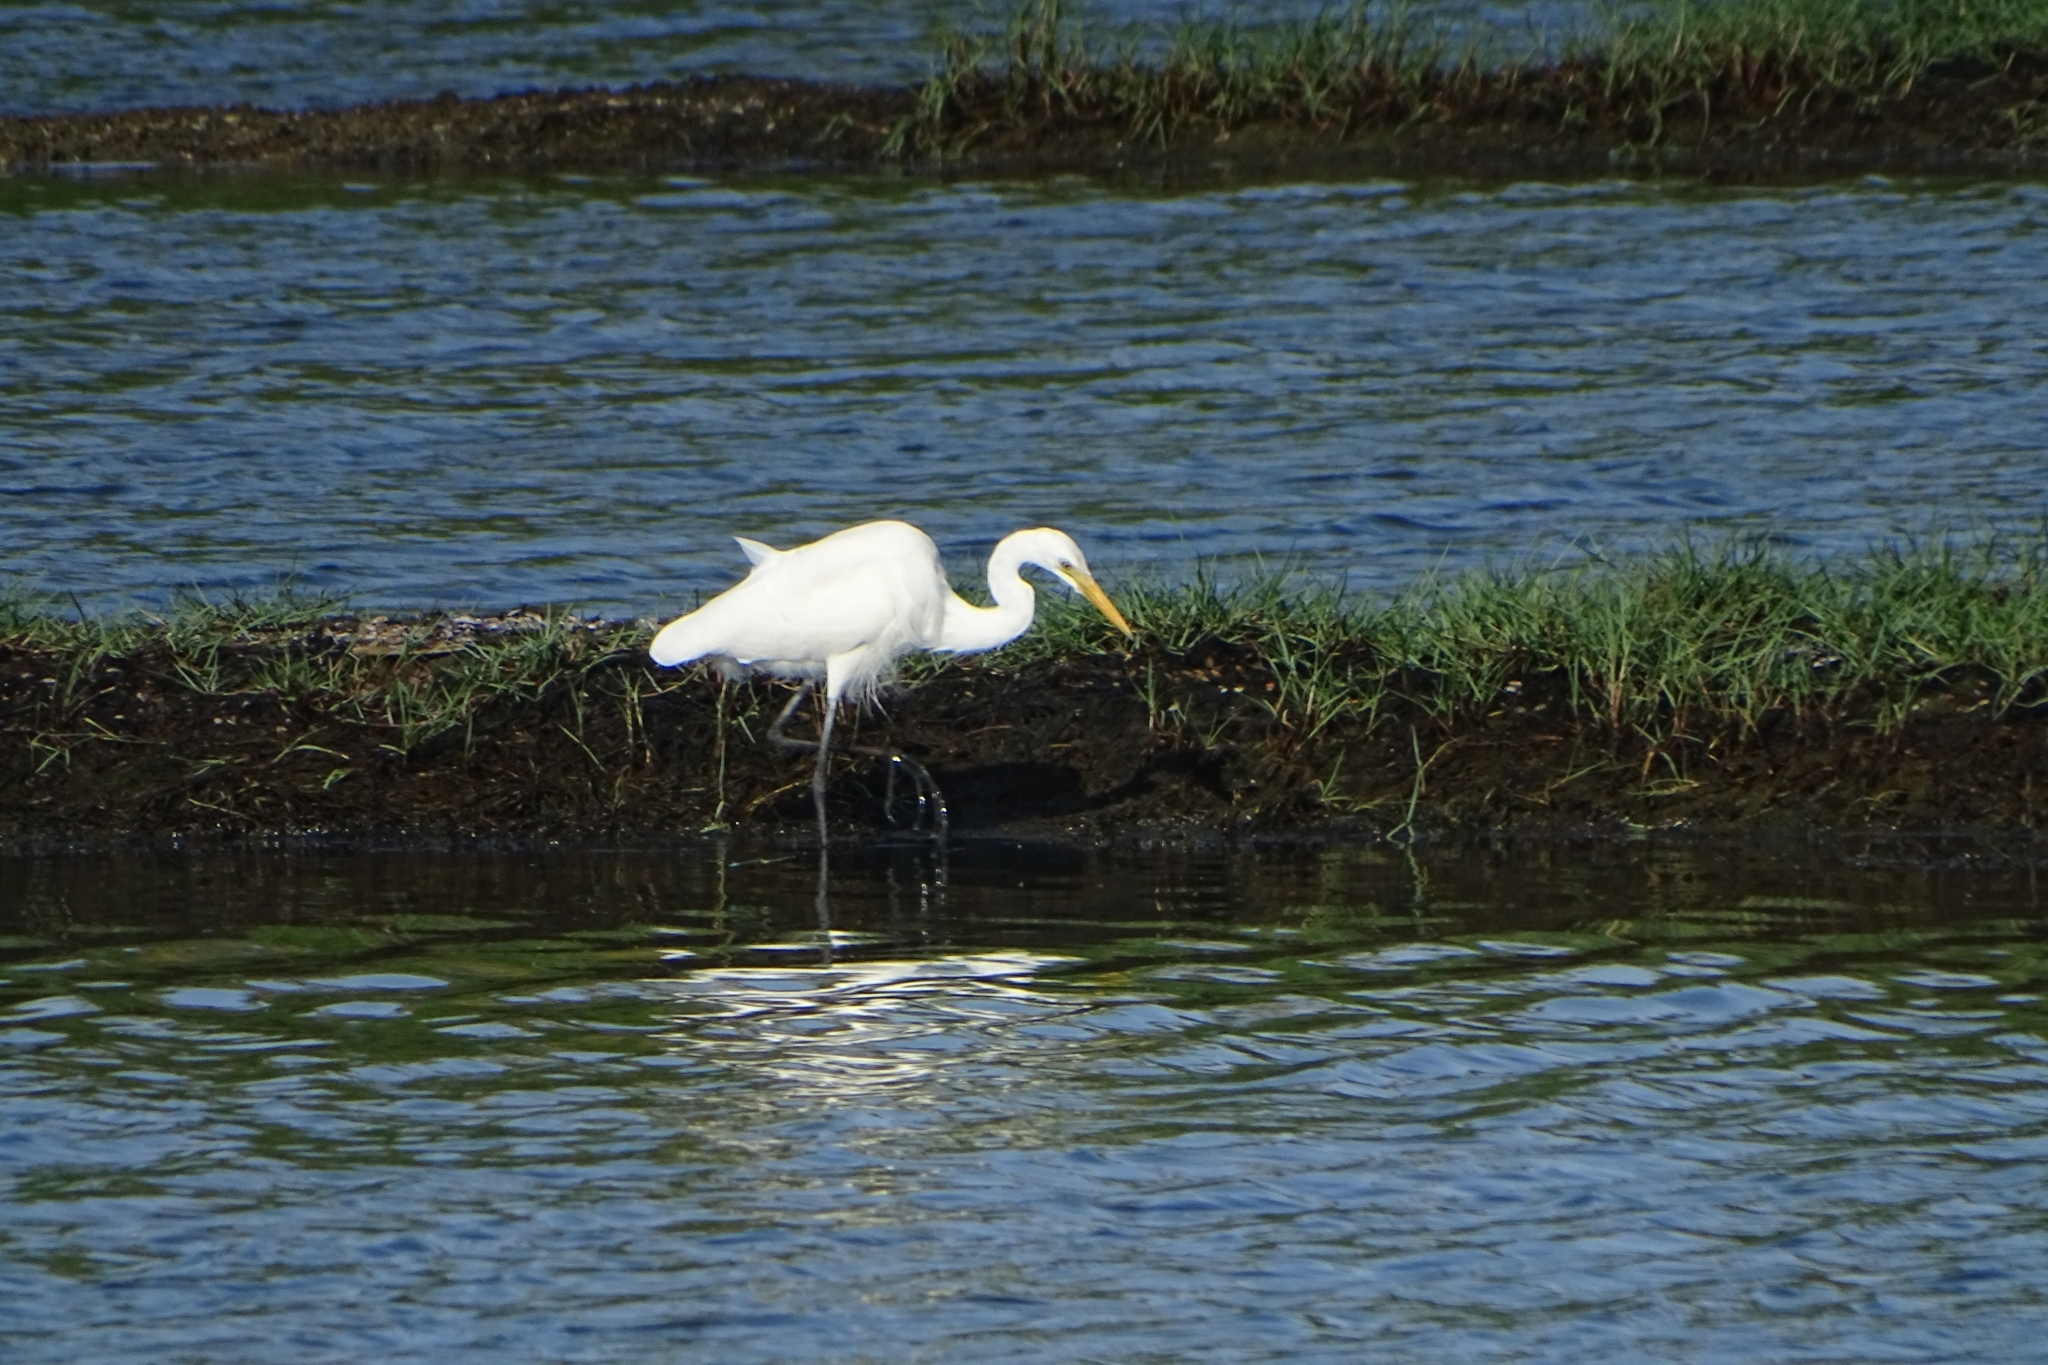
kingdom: Animalia
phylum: Chordata
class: Aves
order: Pelecaniformes
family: Ardeidae
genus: Egretta
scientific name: Egretta intermedia
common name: Intermediate egret
